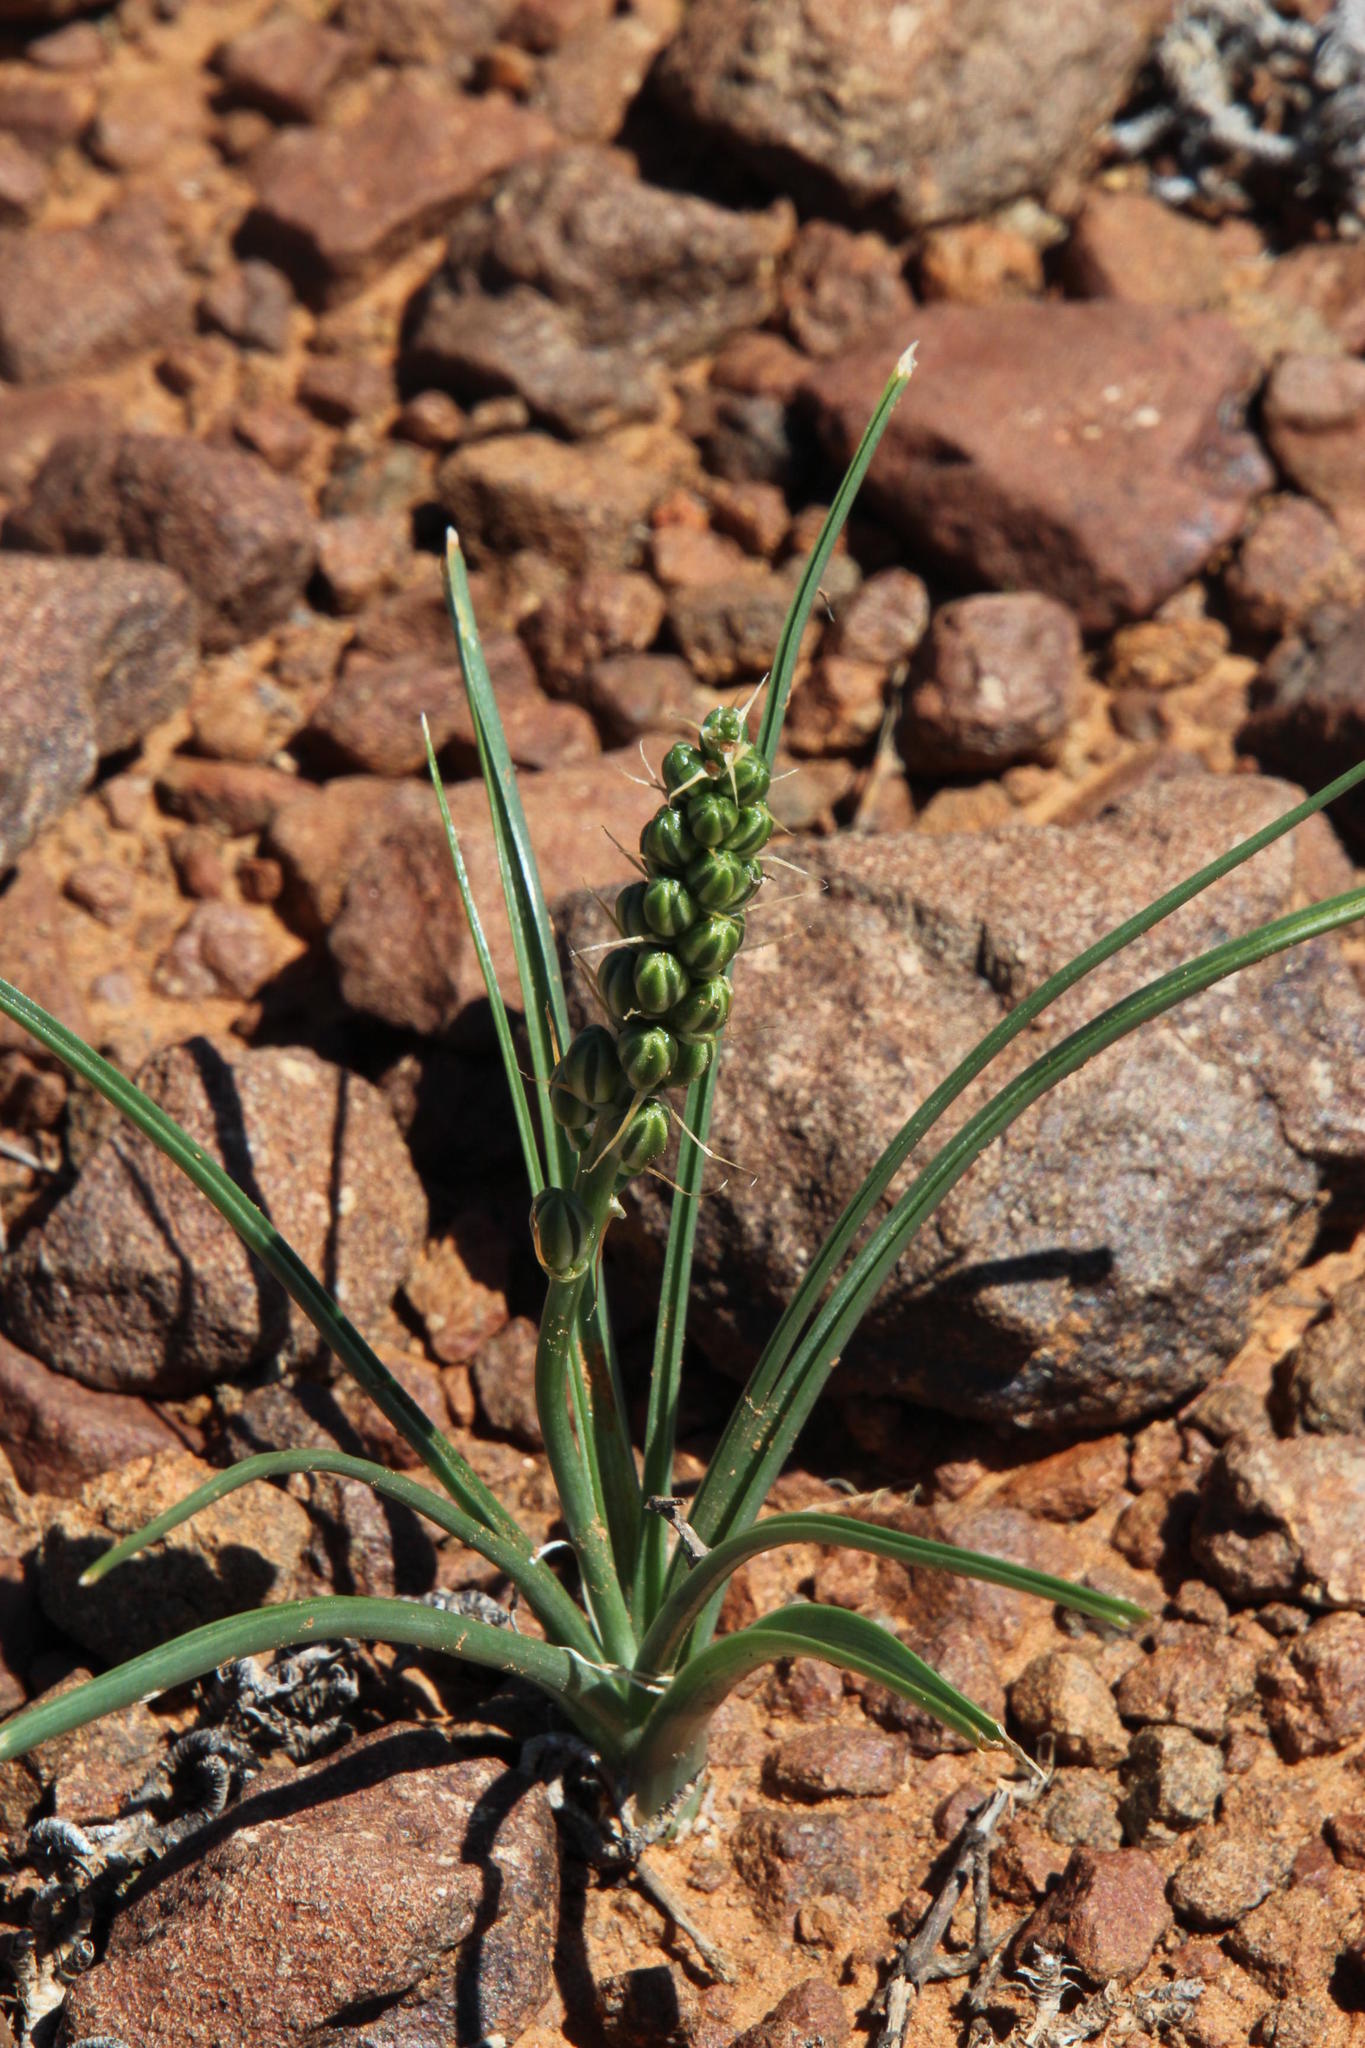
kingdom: Plantae
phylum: Tracheophyta
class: Liliopsida
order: Asparagales
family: Asparagaceae
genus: Albuca
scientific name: Albuca virens
